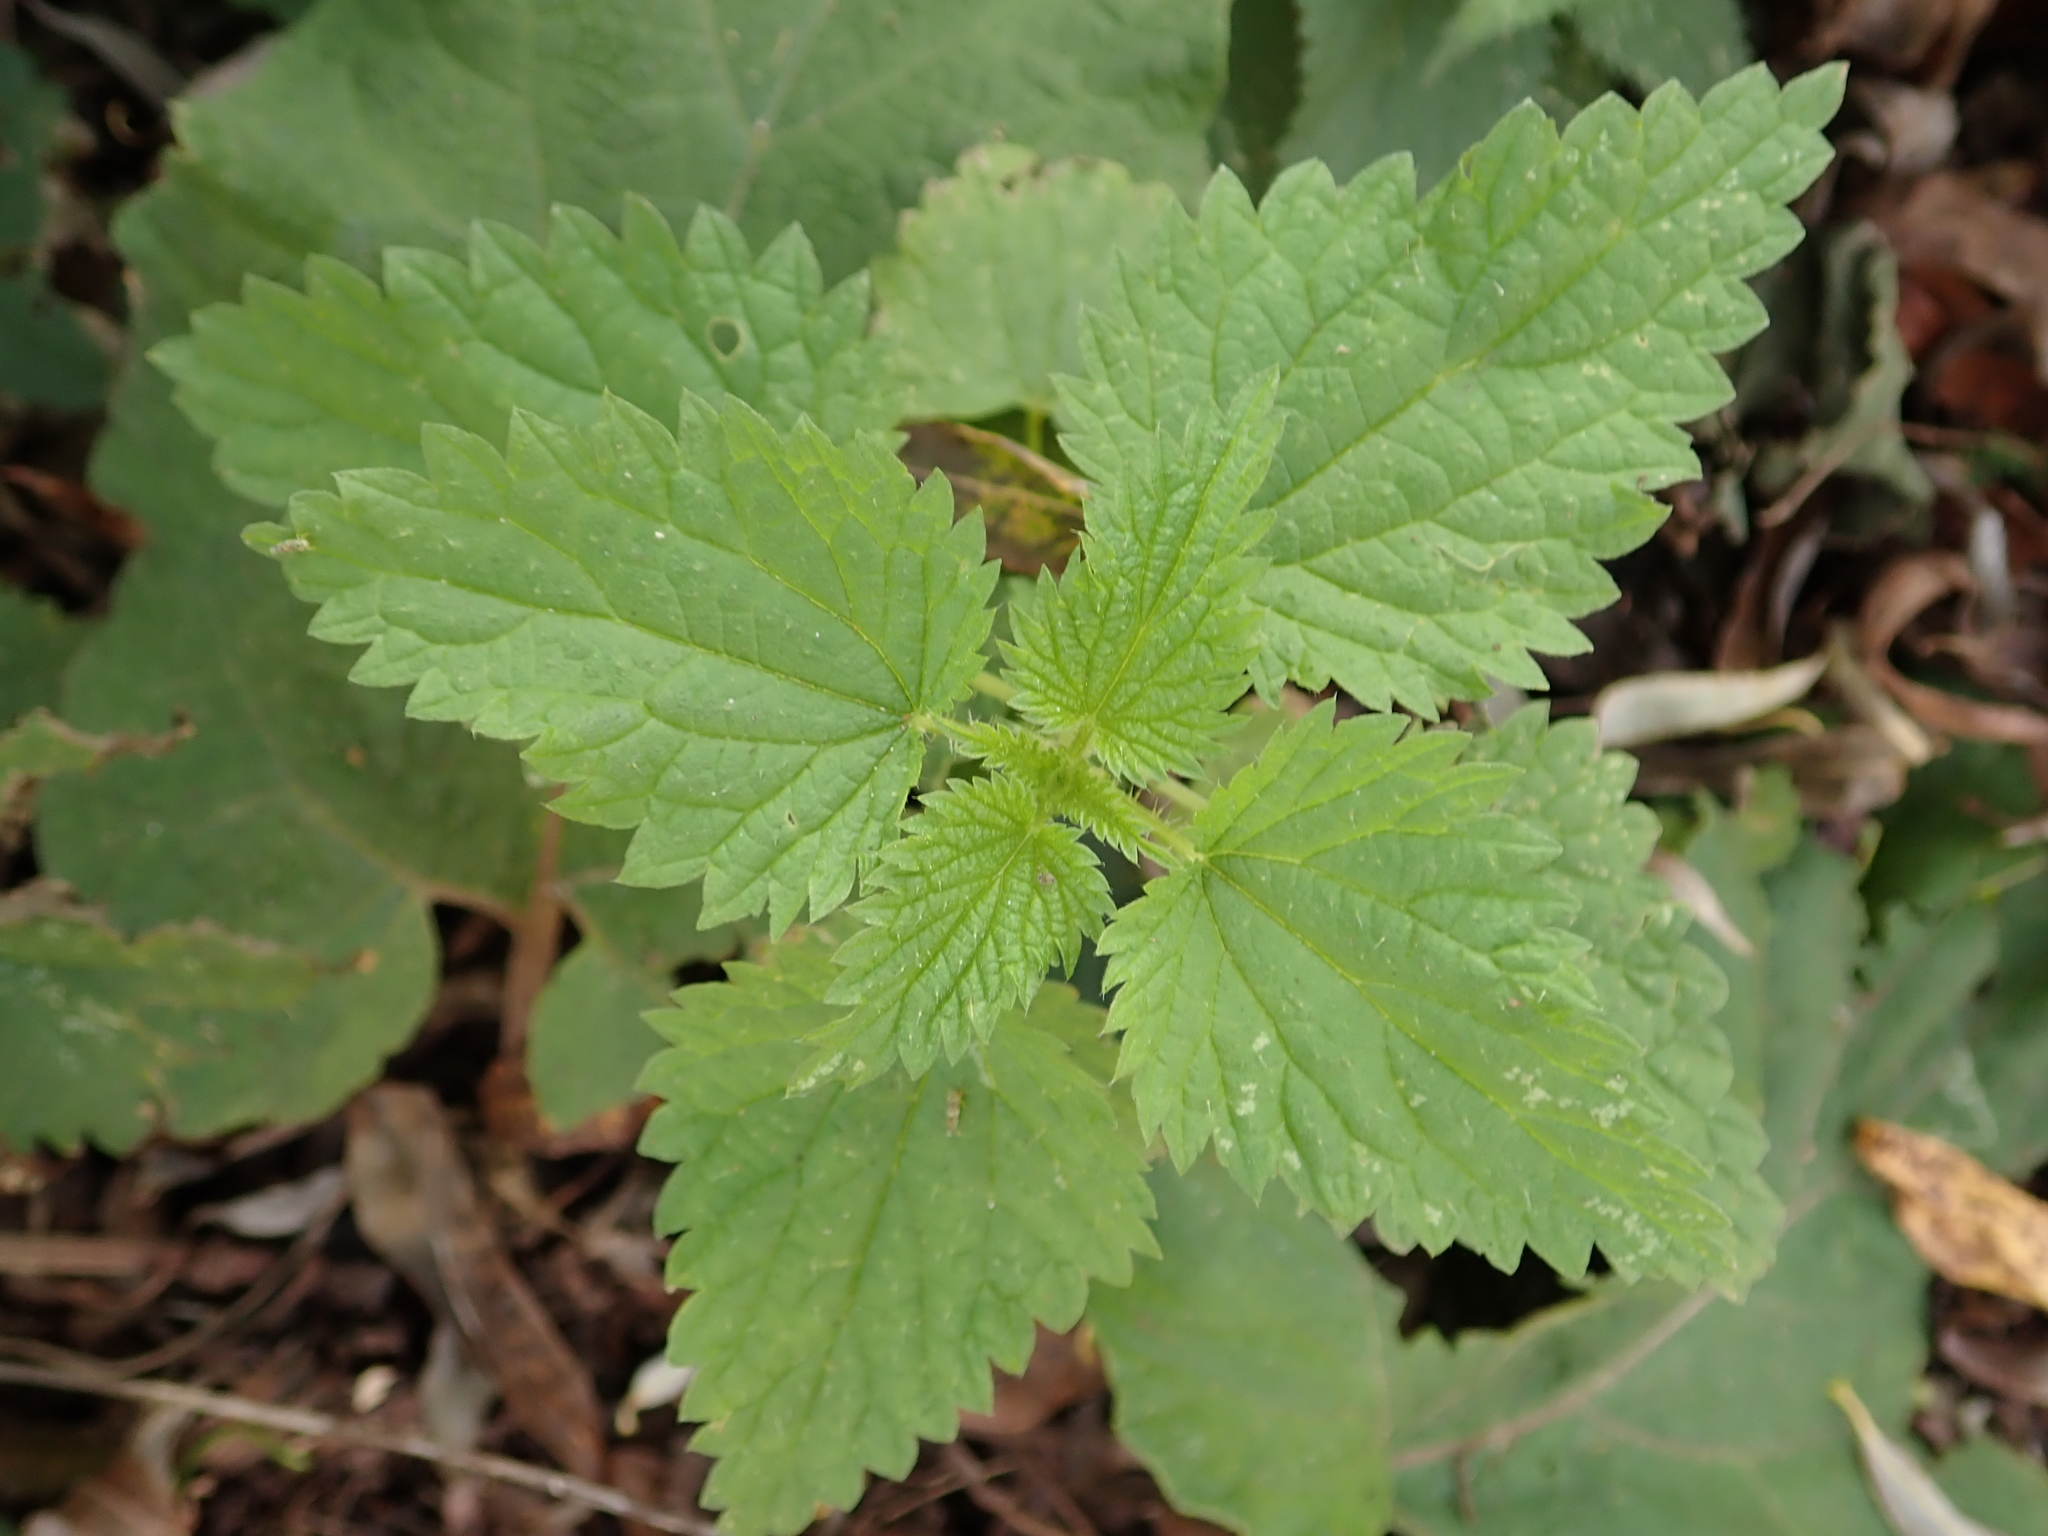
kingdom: Plantae
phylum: Tracheophyta
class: Magnoliopsida
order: Rosales
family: Urticaceae
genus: Urtica
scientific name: Urtica dioica
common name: Common nettle
